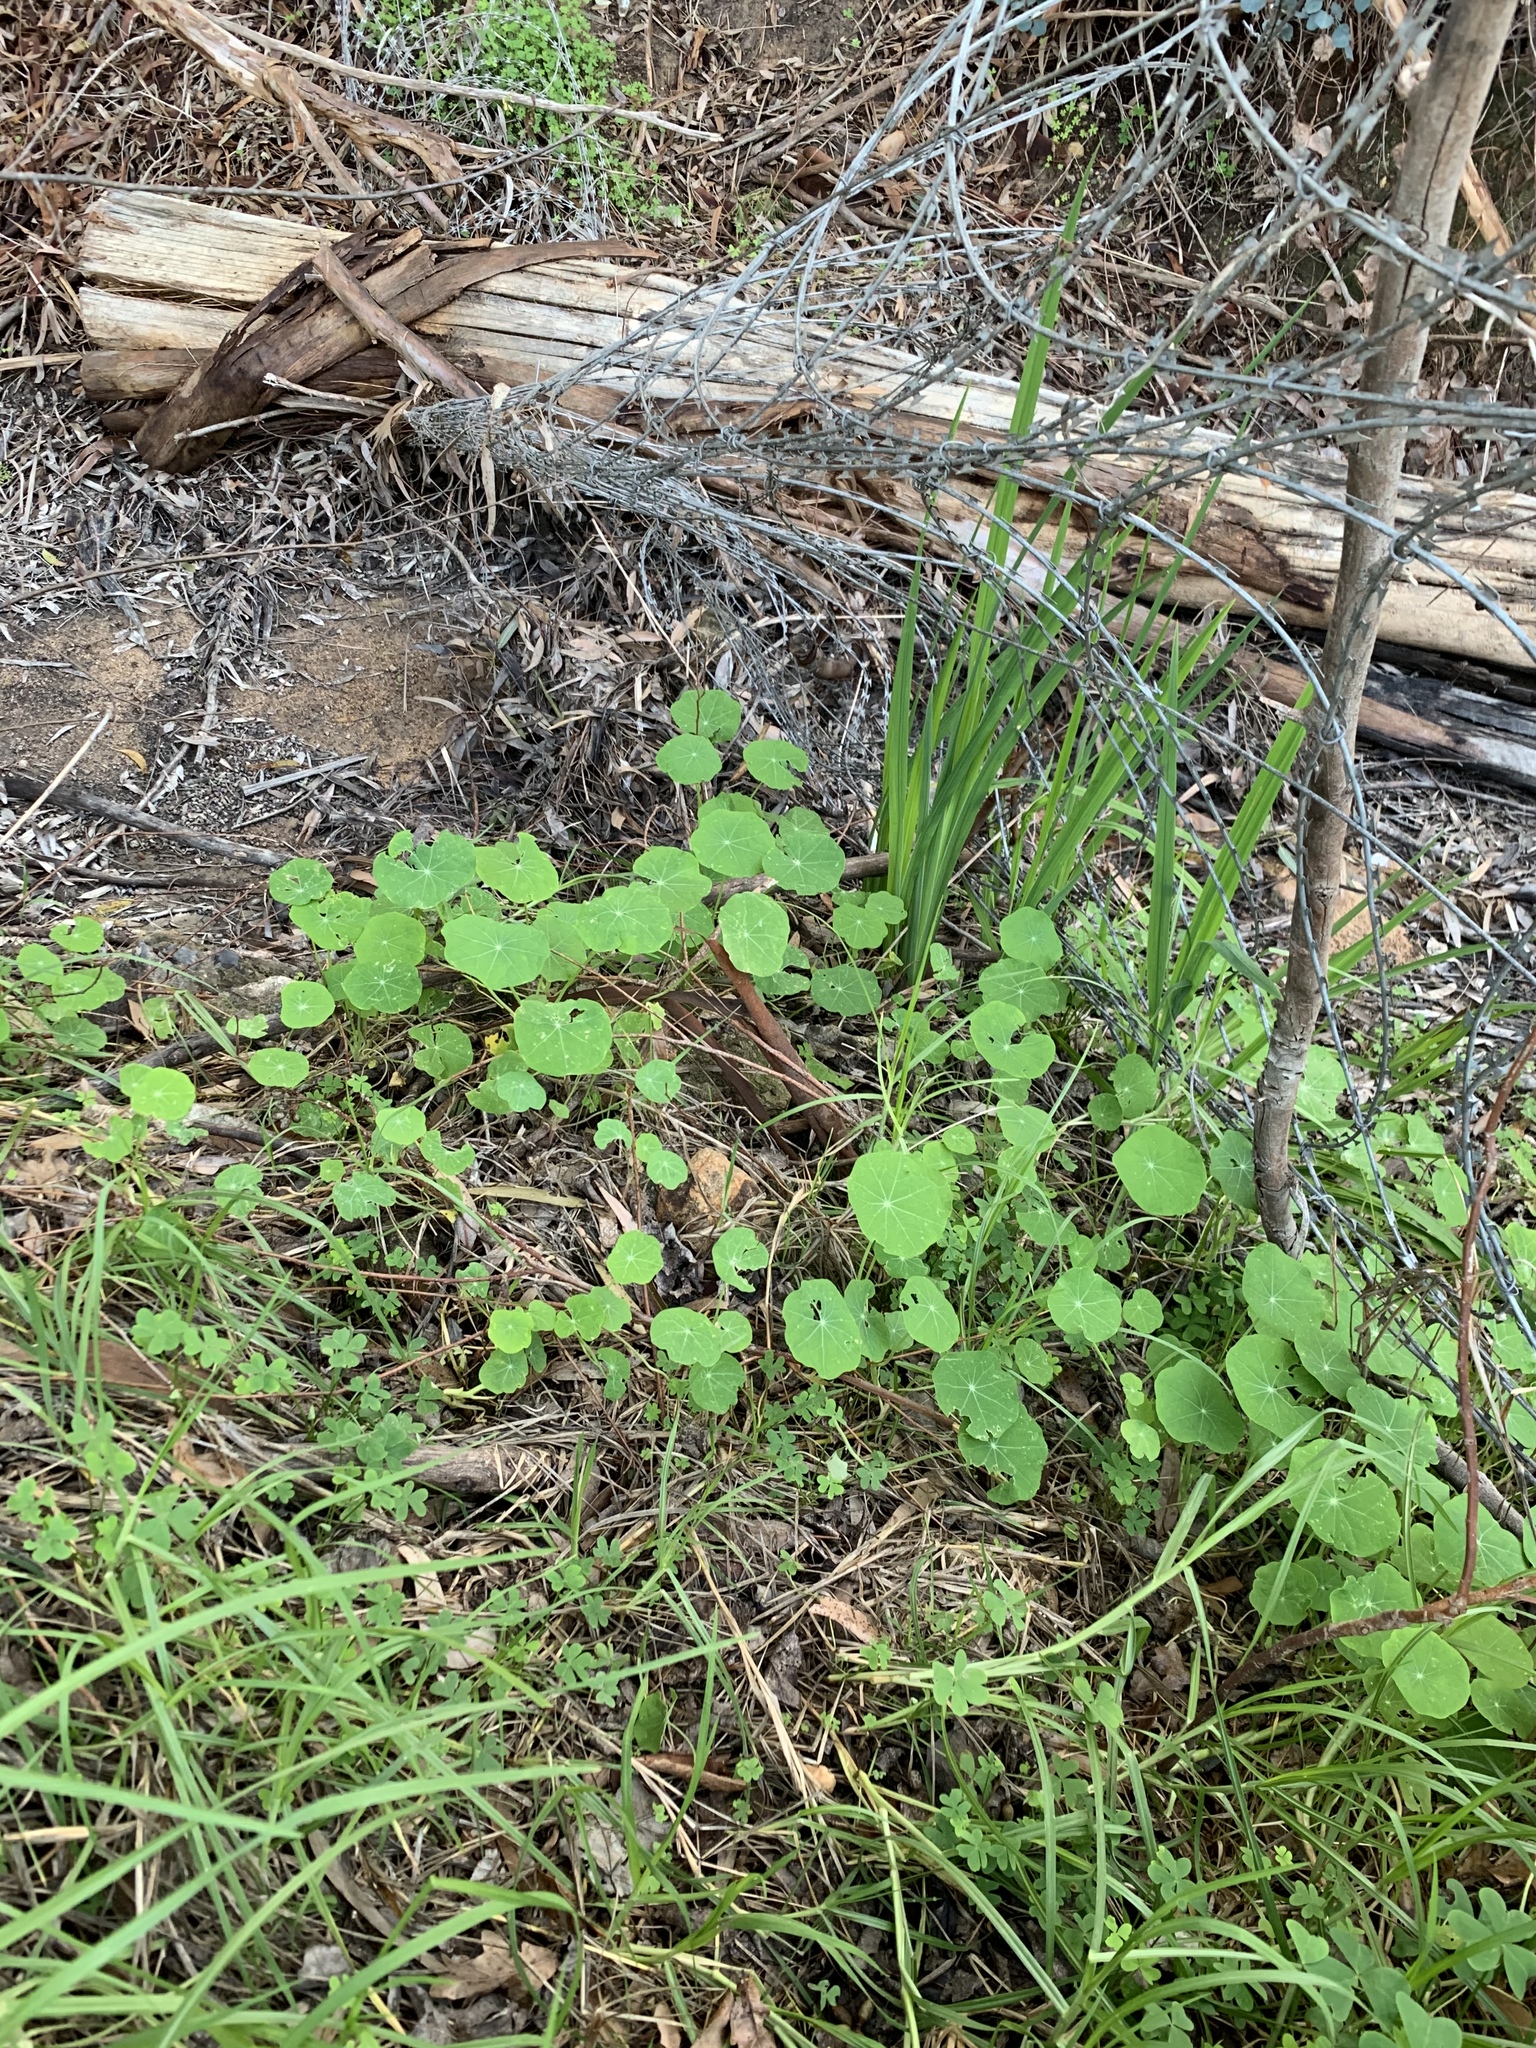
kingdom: Plantae
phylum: Tracheophyta
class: Magnoliopsida
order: Brassicales
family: Tropaeolaceae
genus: Tropaeolum
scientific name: Tropaeolum majus
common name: Nasturtium
